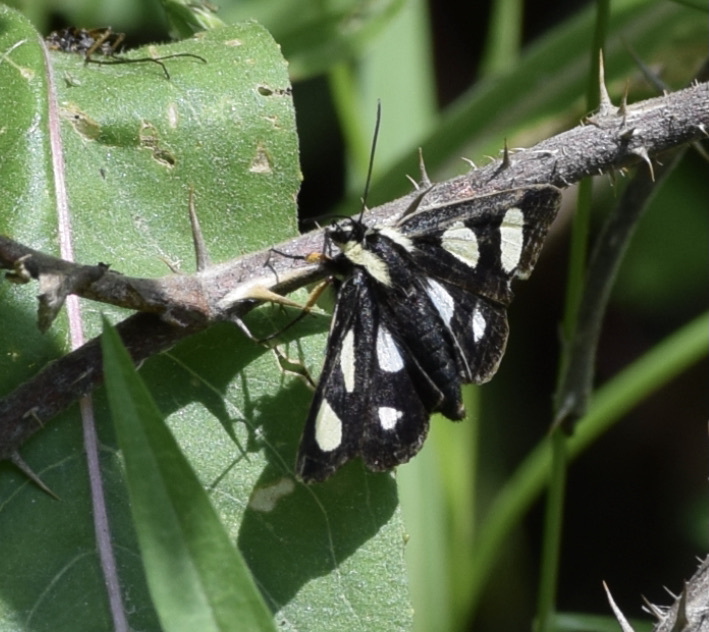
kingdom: Animalia
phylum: Arthropoda
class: Insecta
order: Lepidoptera
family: Noctuidae
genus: Alypia
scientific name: Alypia octomaculata
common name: Eight-spotted forester
